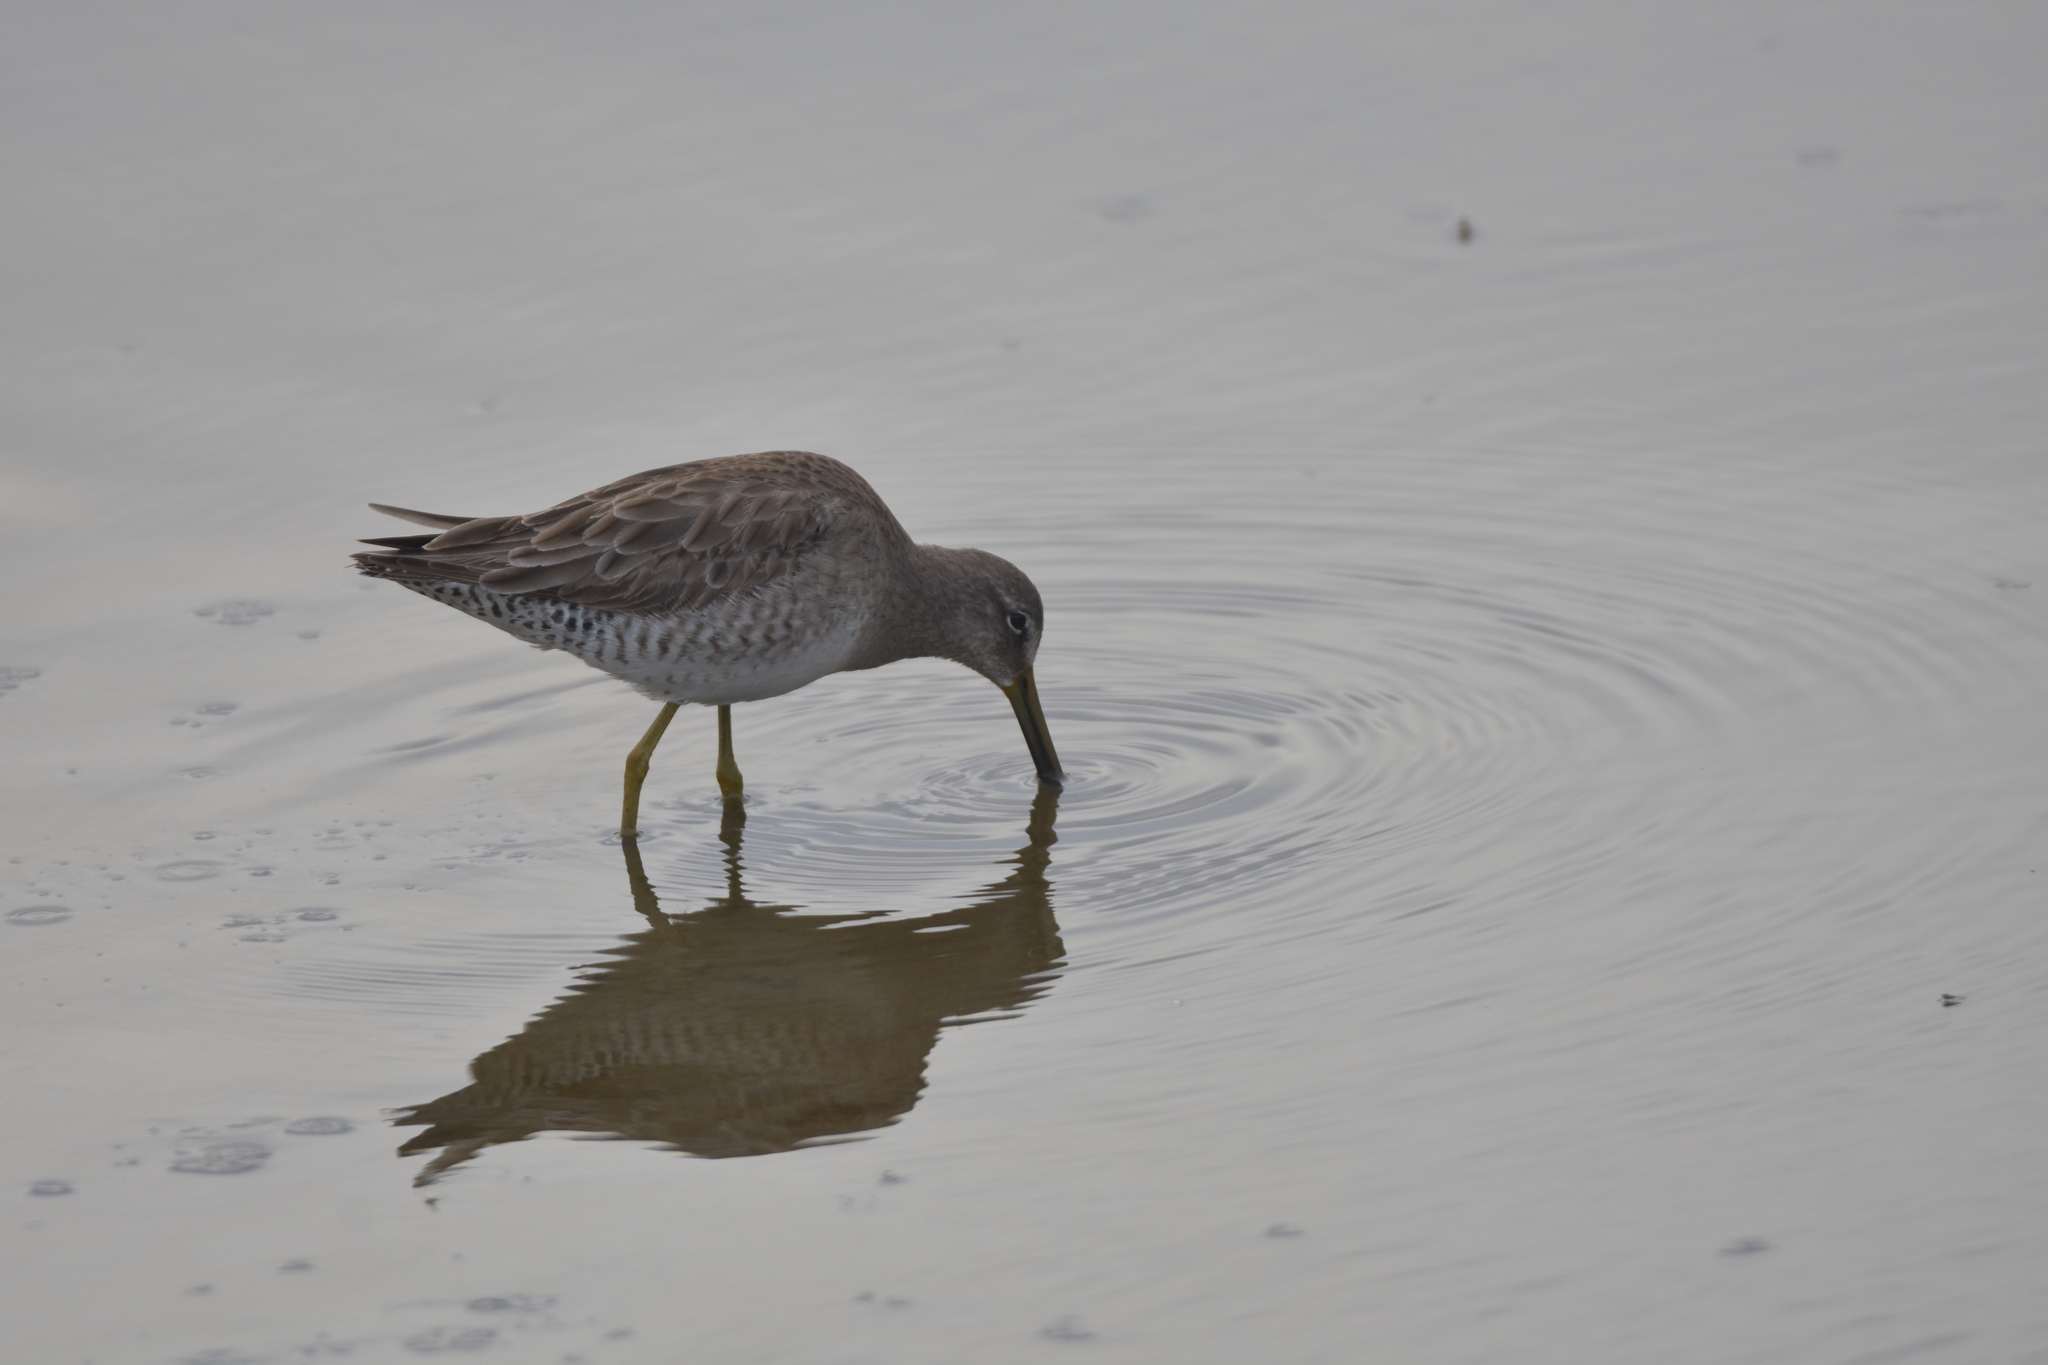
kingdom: Animalia
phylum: Chordata
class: Aves
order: Charadriiformes
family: Scolopacidae
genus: Limnodromus
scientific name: Limnodromus scolopaceus
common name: Long-billed dowitcher
